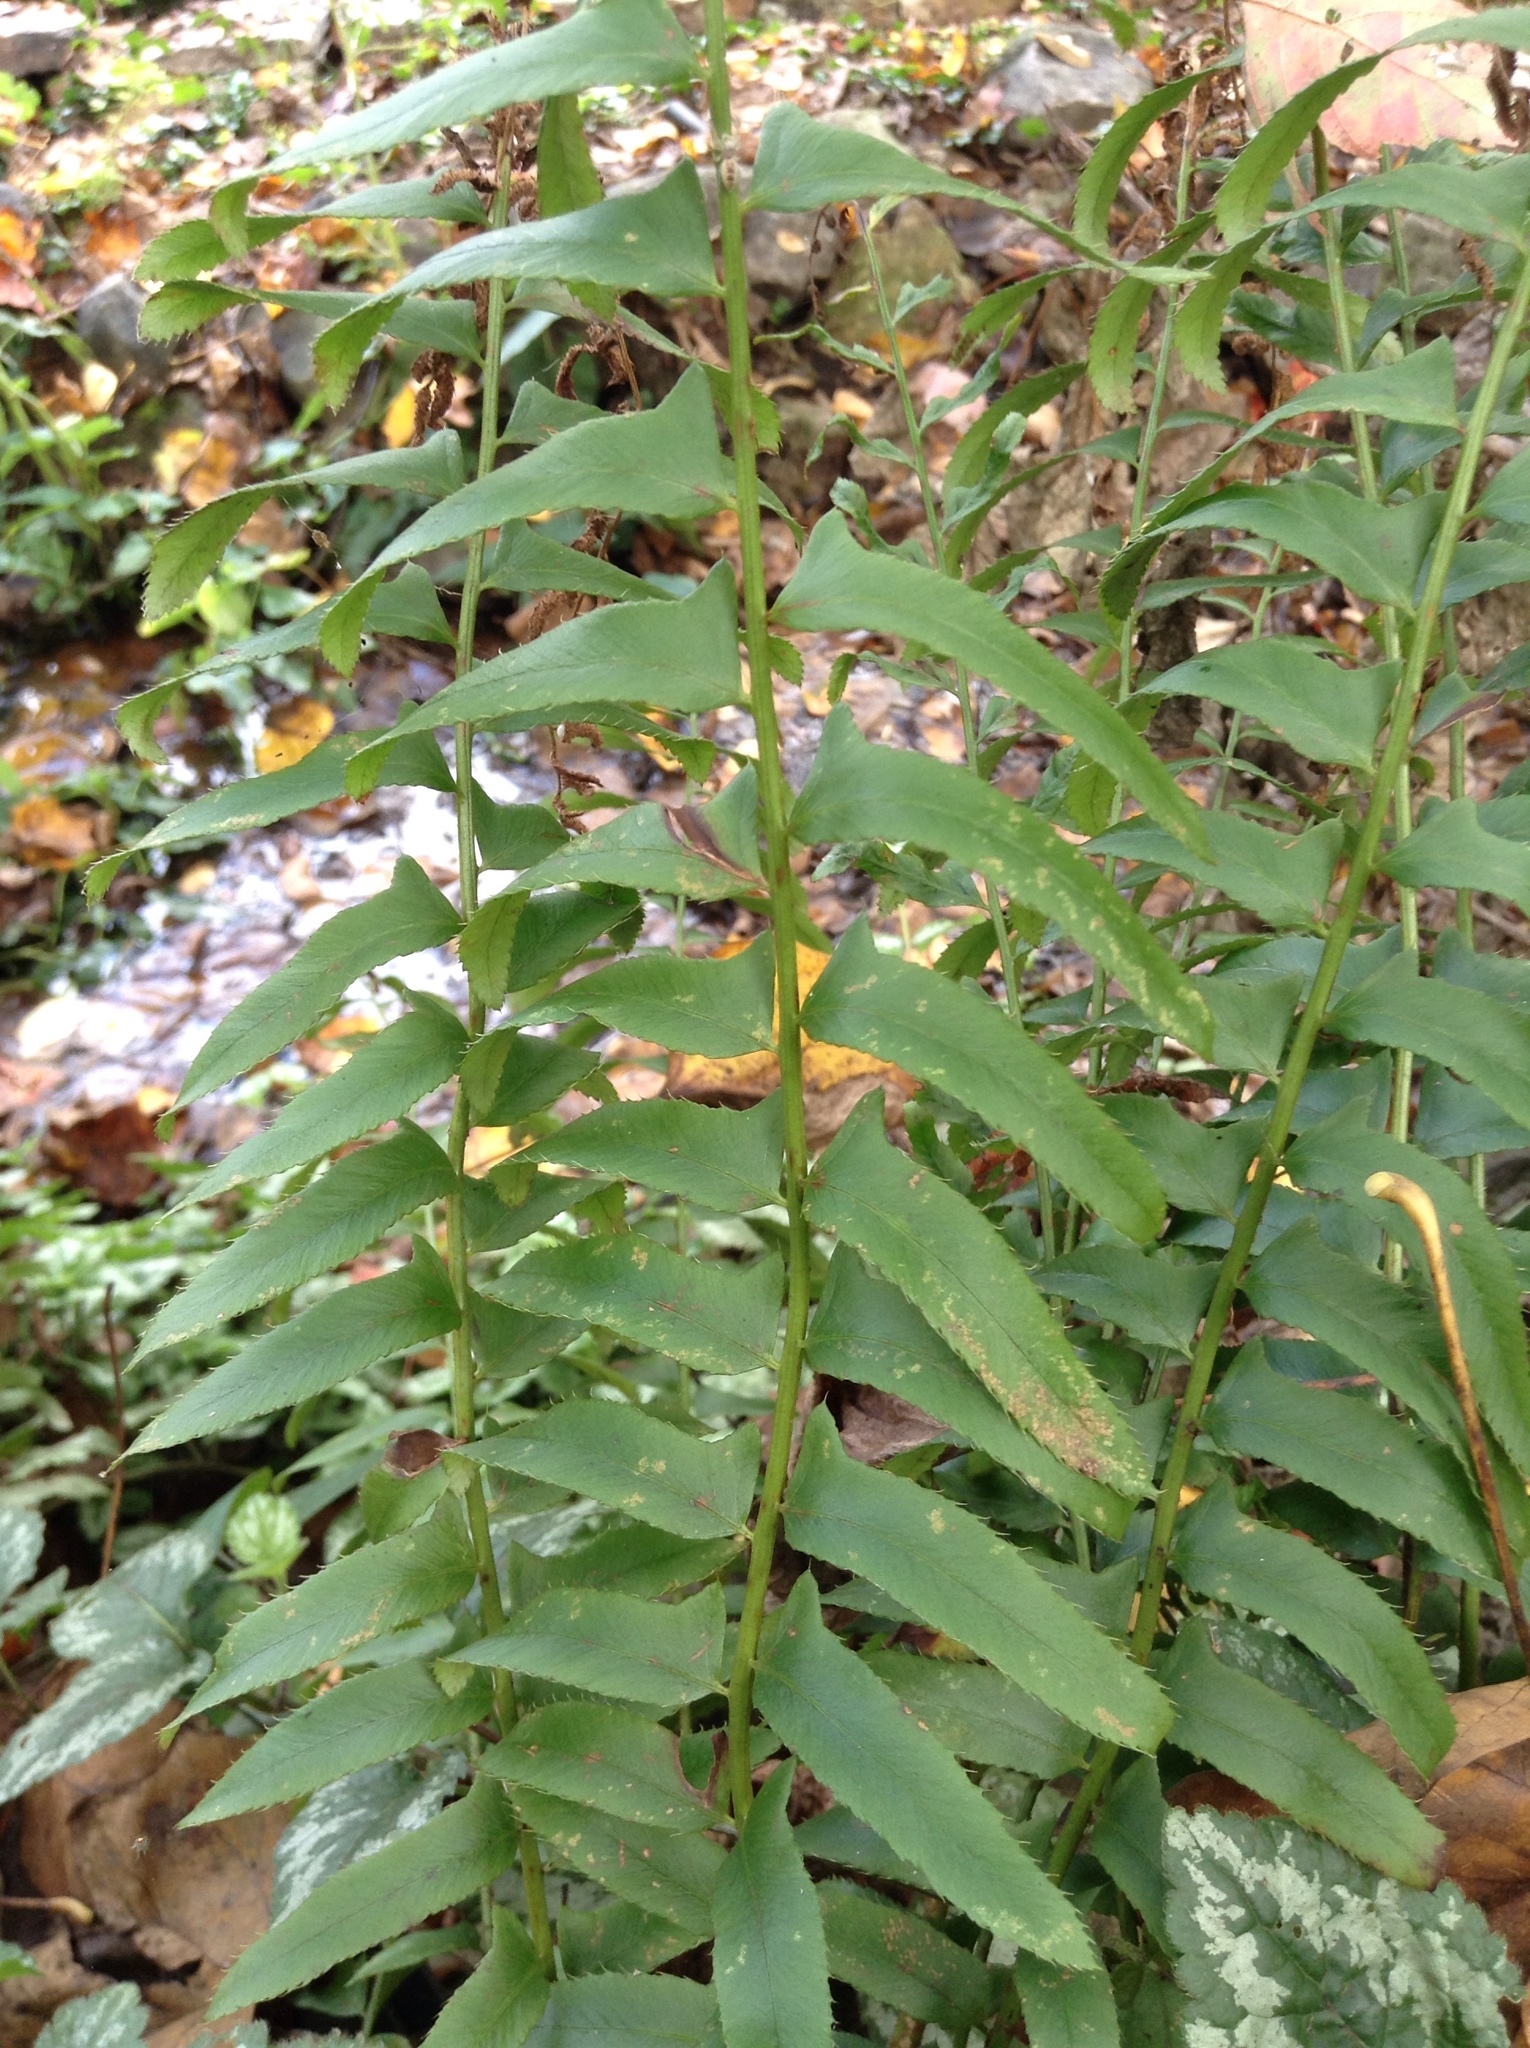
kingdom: Plantae
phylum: Tracheophyta
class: Polypodiopsida
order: Polypodiales
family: Dryopteridaceae
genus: Polystichum
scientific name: Polystichum acrostichoides
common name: Christmas fern
